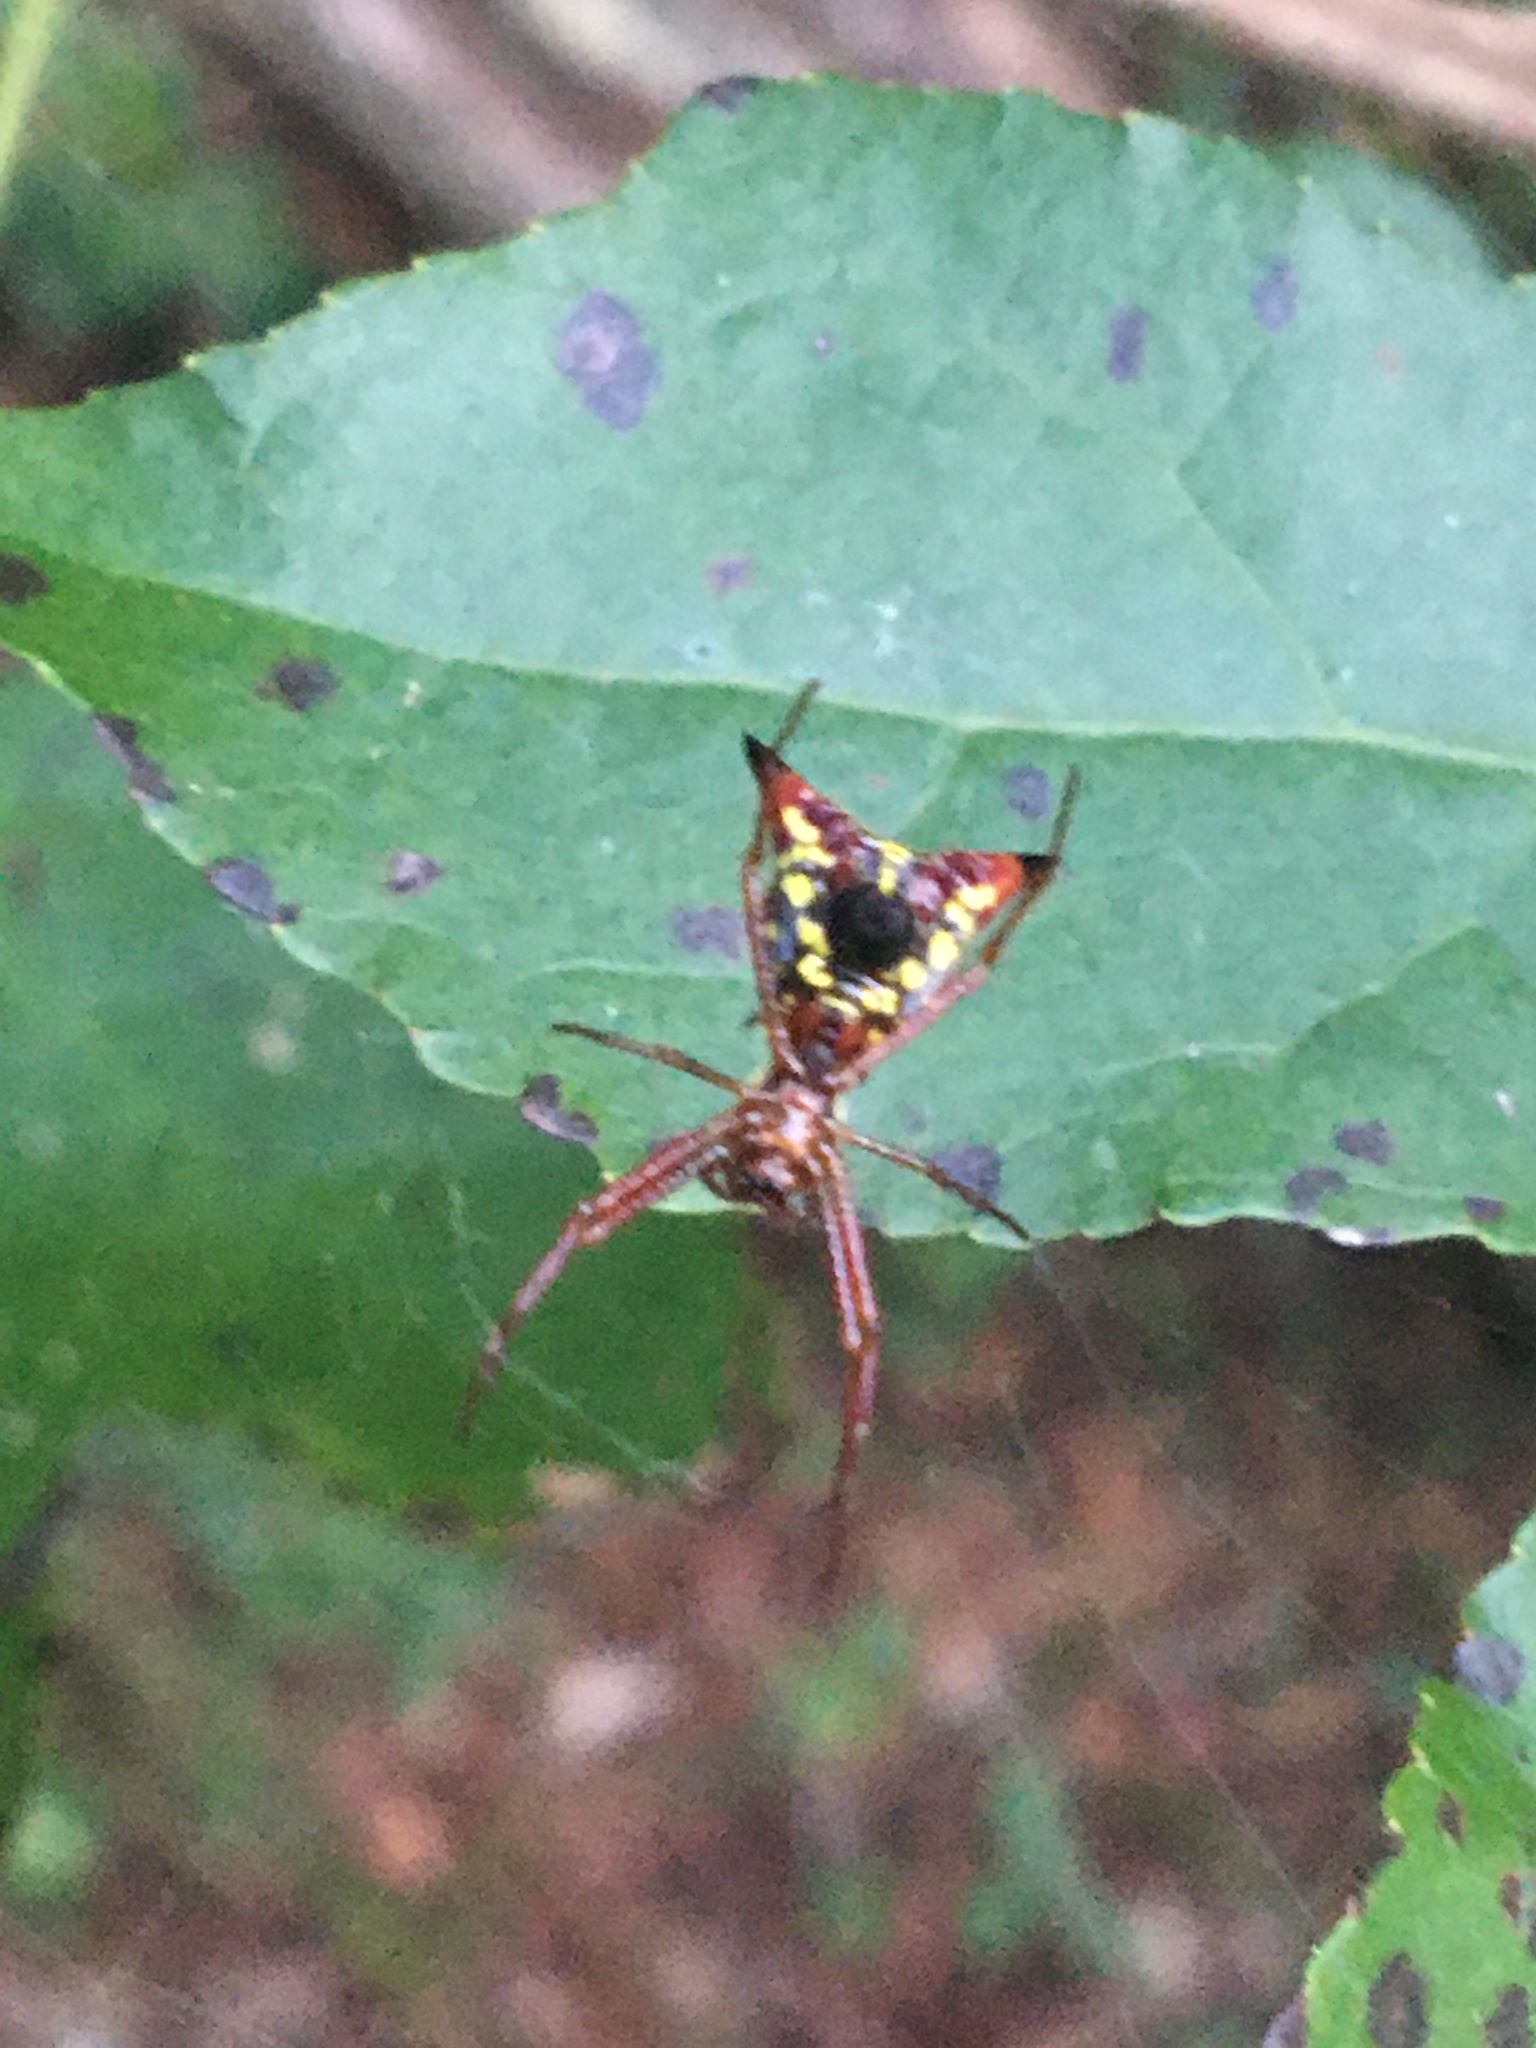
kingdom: Animalia
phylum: Arthropoda
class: Arachnida
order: Araneae
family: Araneidae
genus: Micrathena
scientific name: Micrathena sagittata
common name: Orb weavers
